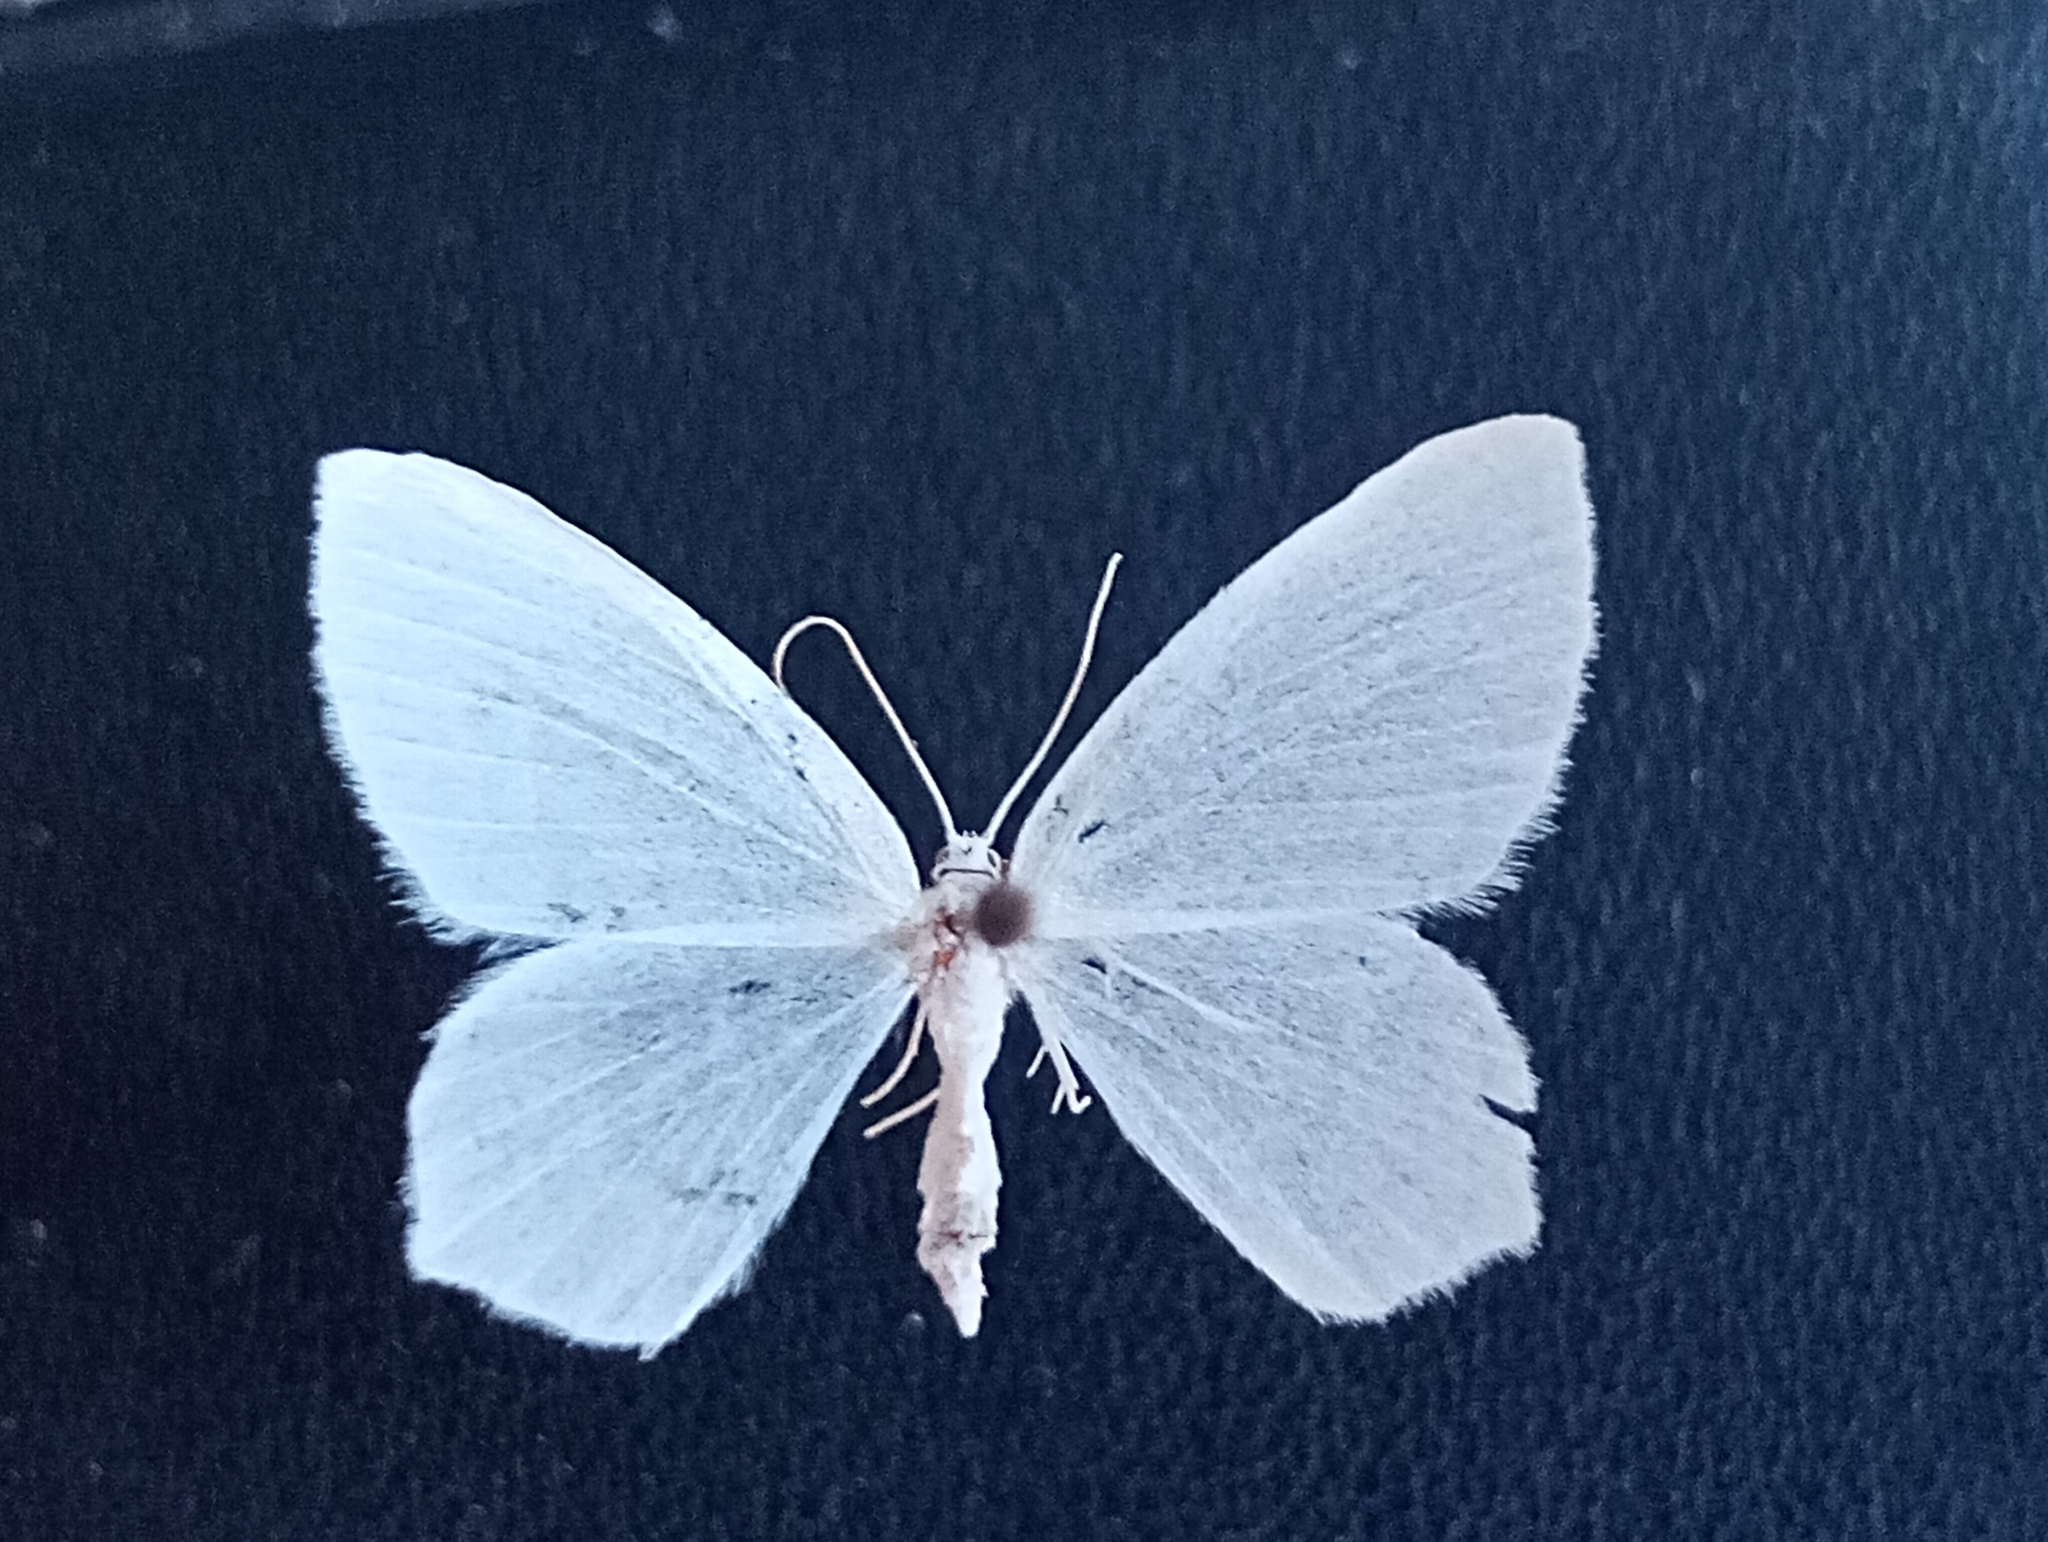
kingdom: Animalia
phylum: Arthropoda
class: Insecta
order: Lepidoptera
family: Geometridae
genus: Jodis
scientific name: Jodis lactearia
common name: Little emerald
